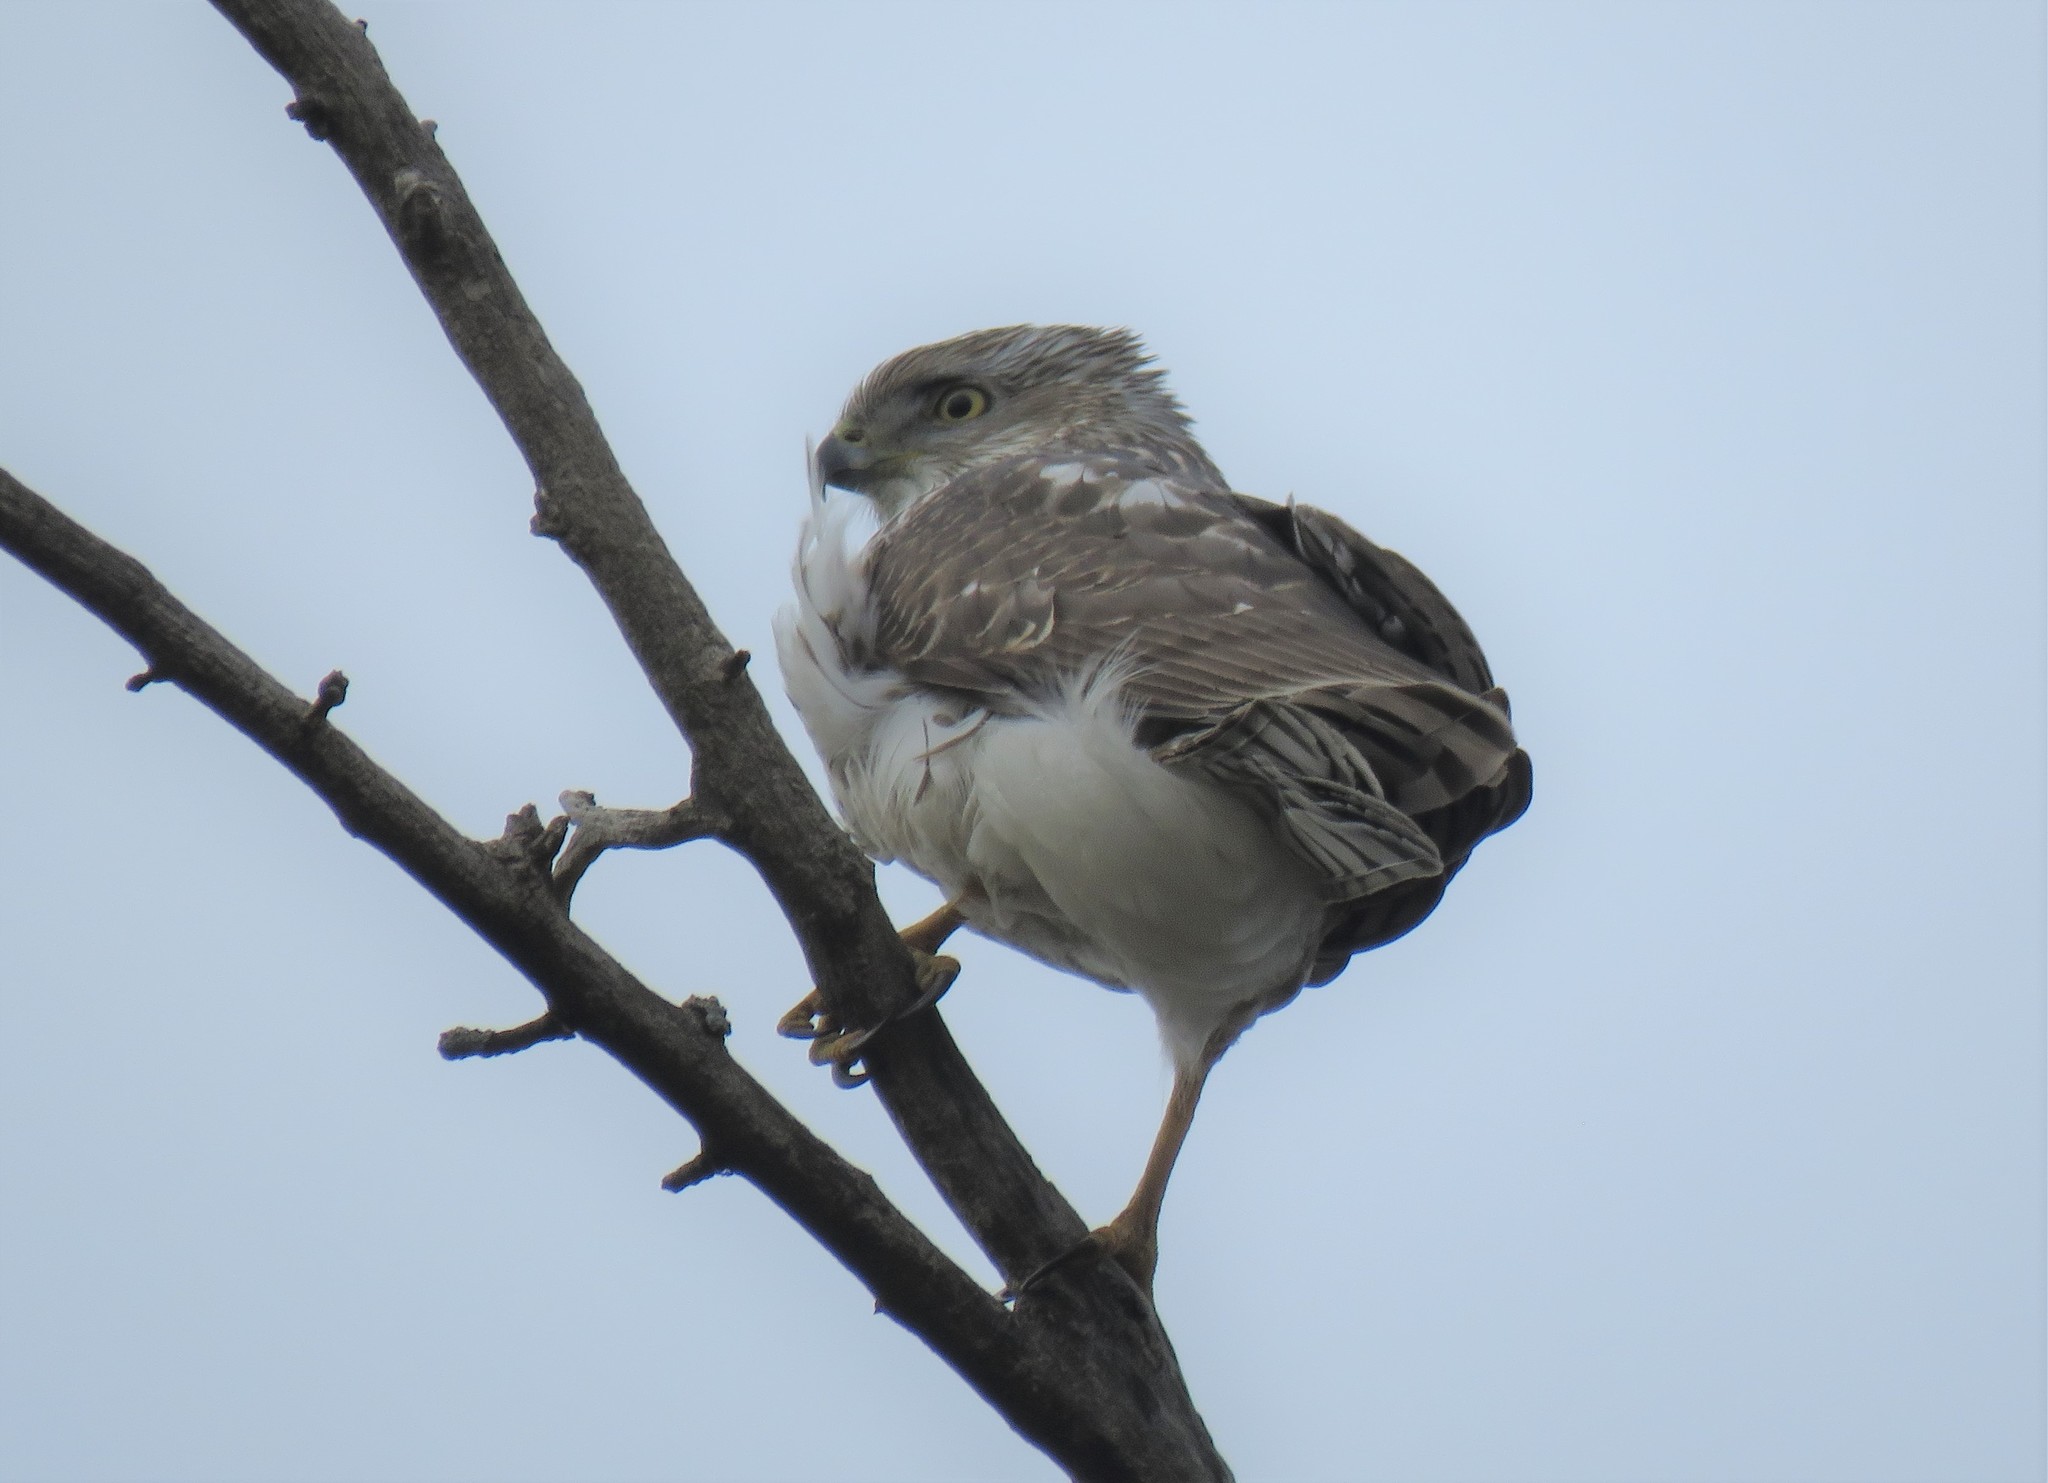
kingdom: Animalia
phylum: Chordata
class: Aves
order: Accipitriformes
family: Accipitridae
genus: Buteo
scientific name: Buteo jamaicensis
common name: Red-tailed hawk
